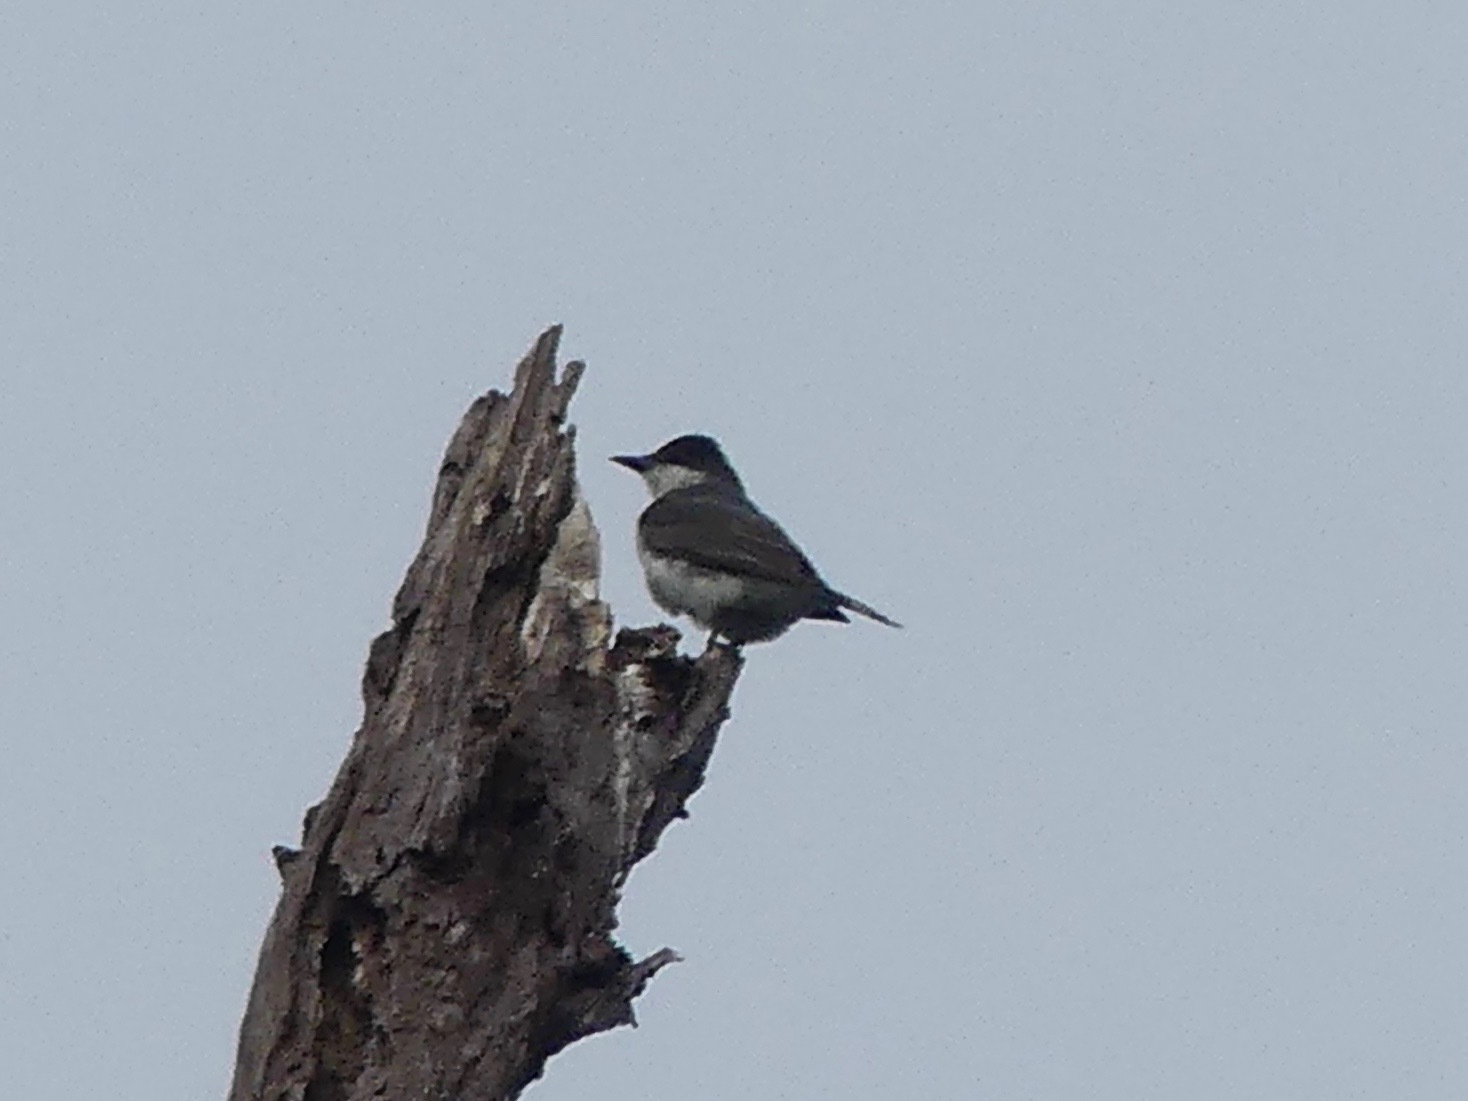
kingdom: Animalia
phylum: Chordata
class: Aves
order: Passeriformes
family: Tyrannidae
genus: Tyrannus
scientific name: Tyrannus tyrannus
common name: Eastern kingbird
